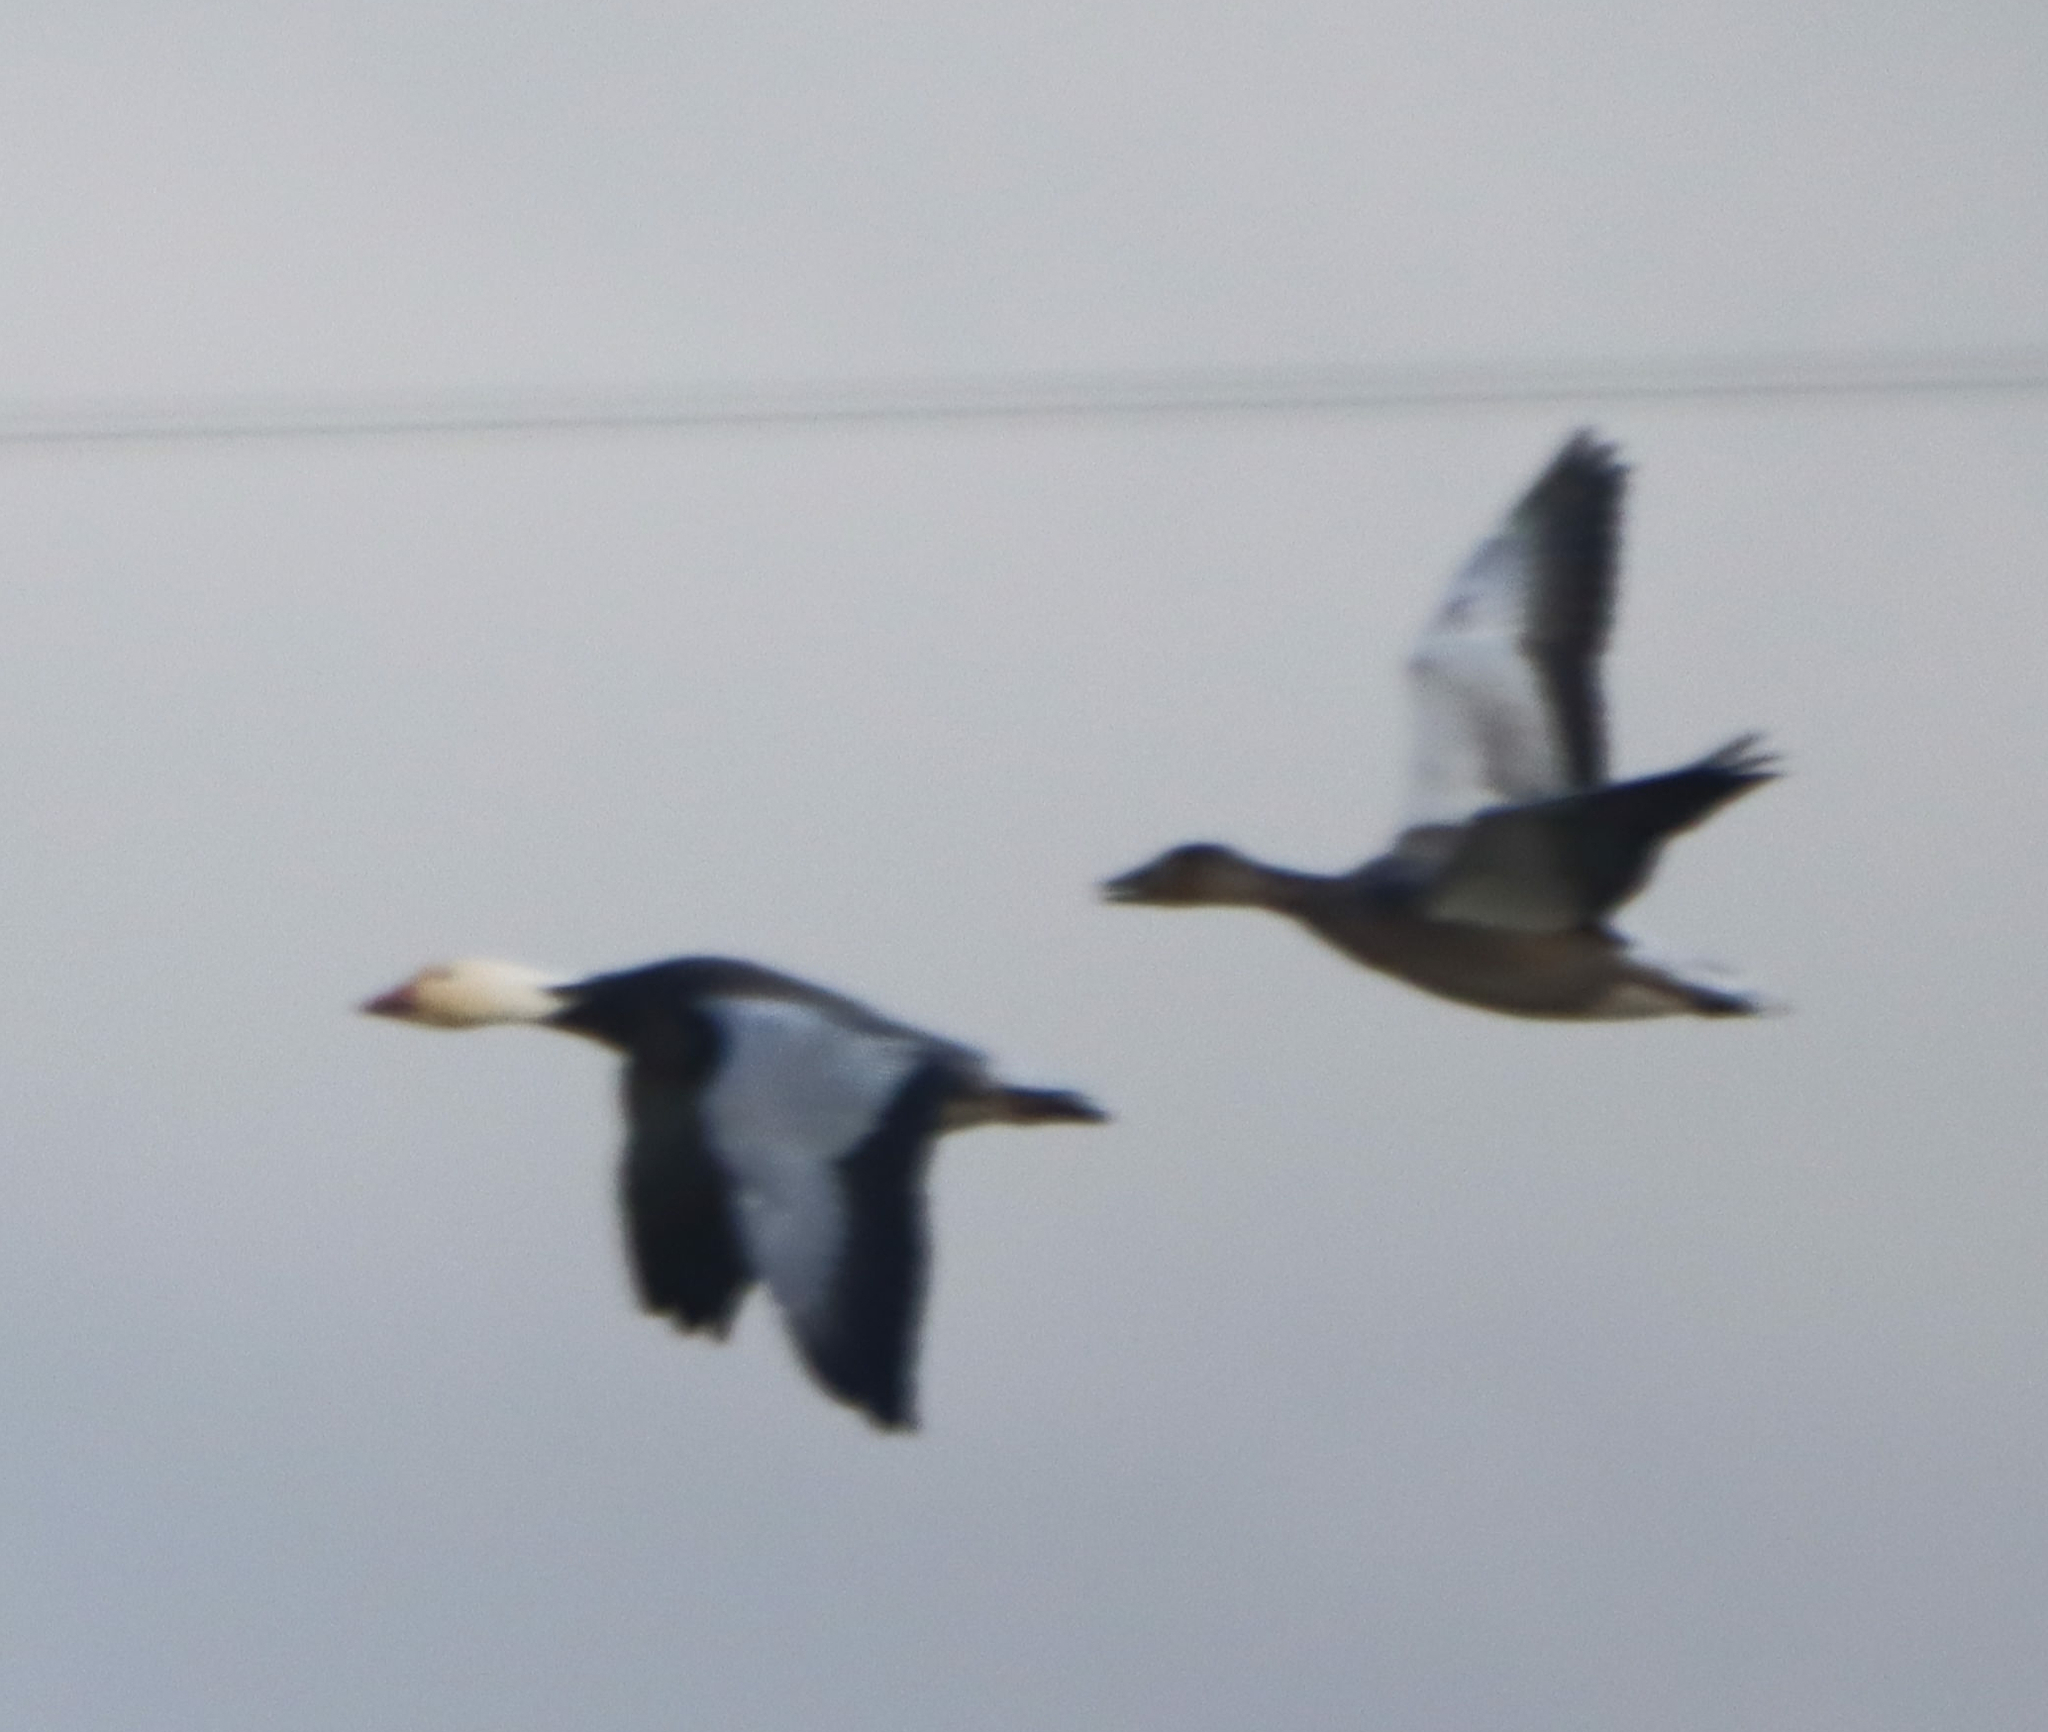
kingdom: Animalia
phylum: Chordata
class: Aves
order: Anseriformes
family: Anatidae
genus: Anser
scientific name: Anser caerulescens
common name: Snow goose
